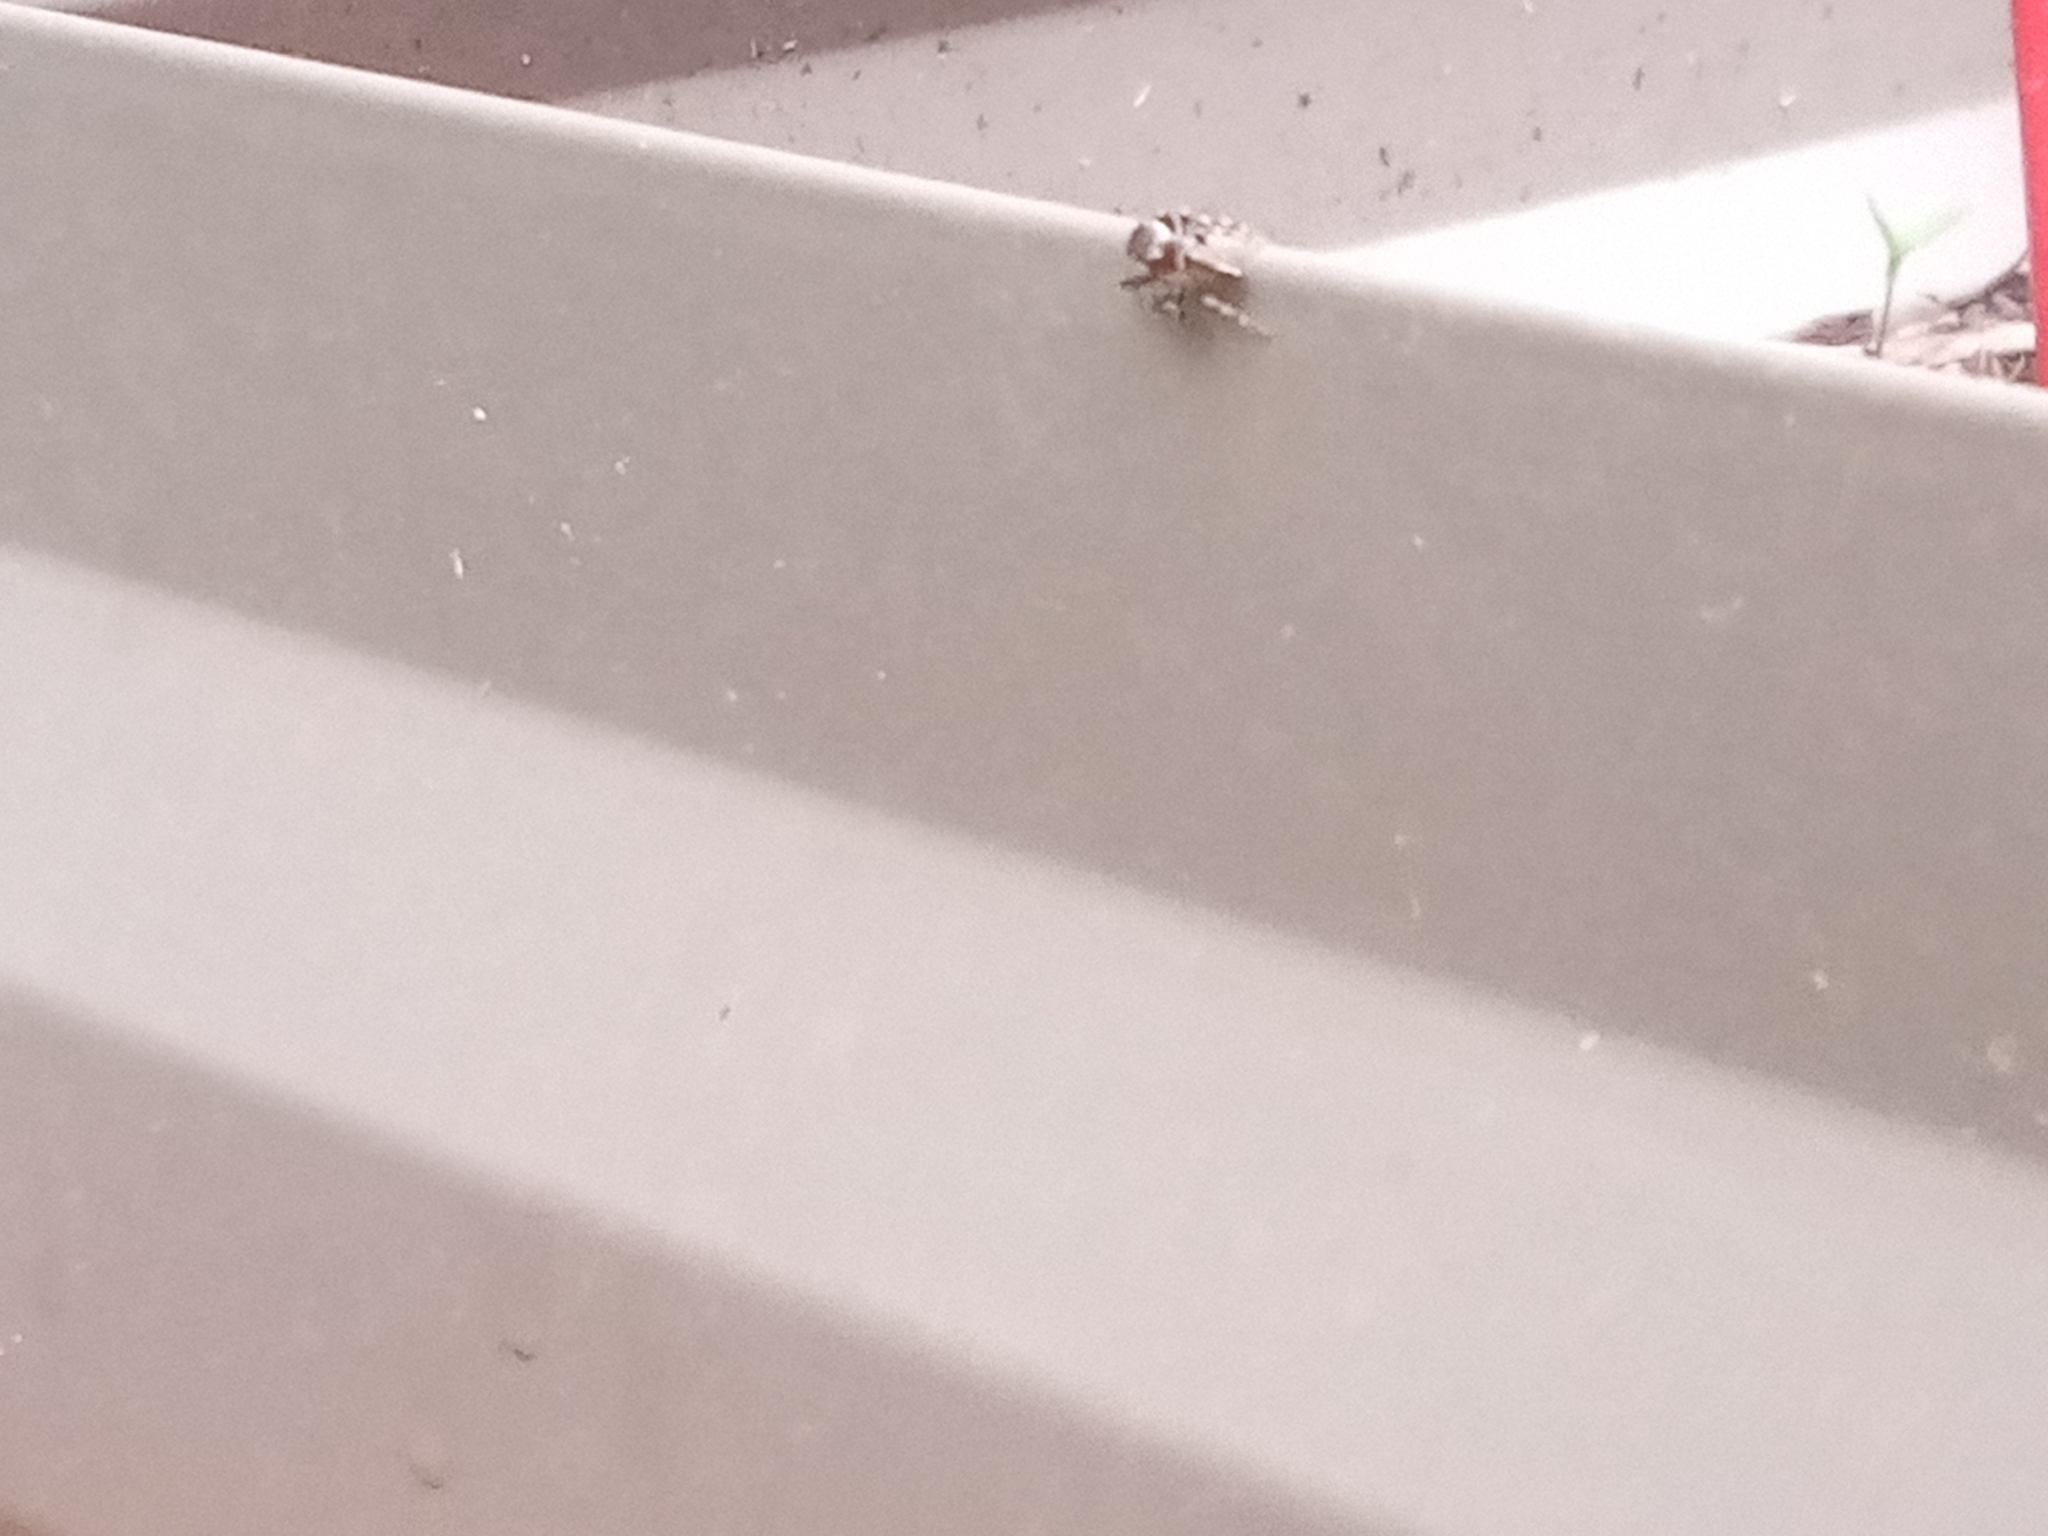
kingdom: Animalia
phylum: Arthropoda
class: Arachnida
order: Araneae
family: Salticidae
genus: Maratus
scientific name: Maratus scutulatus
